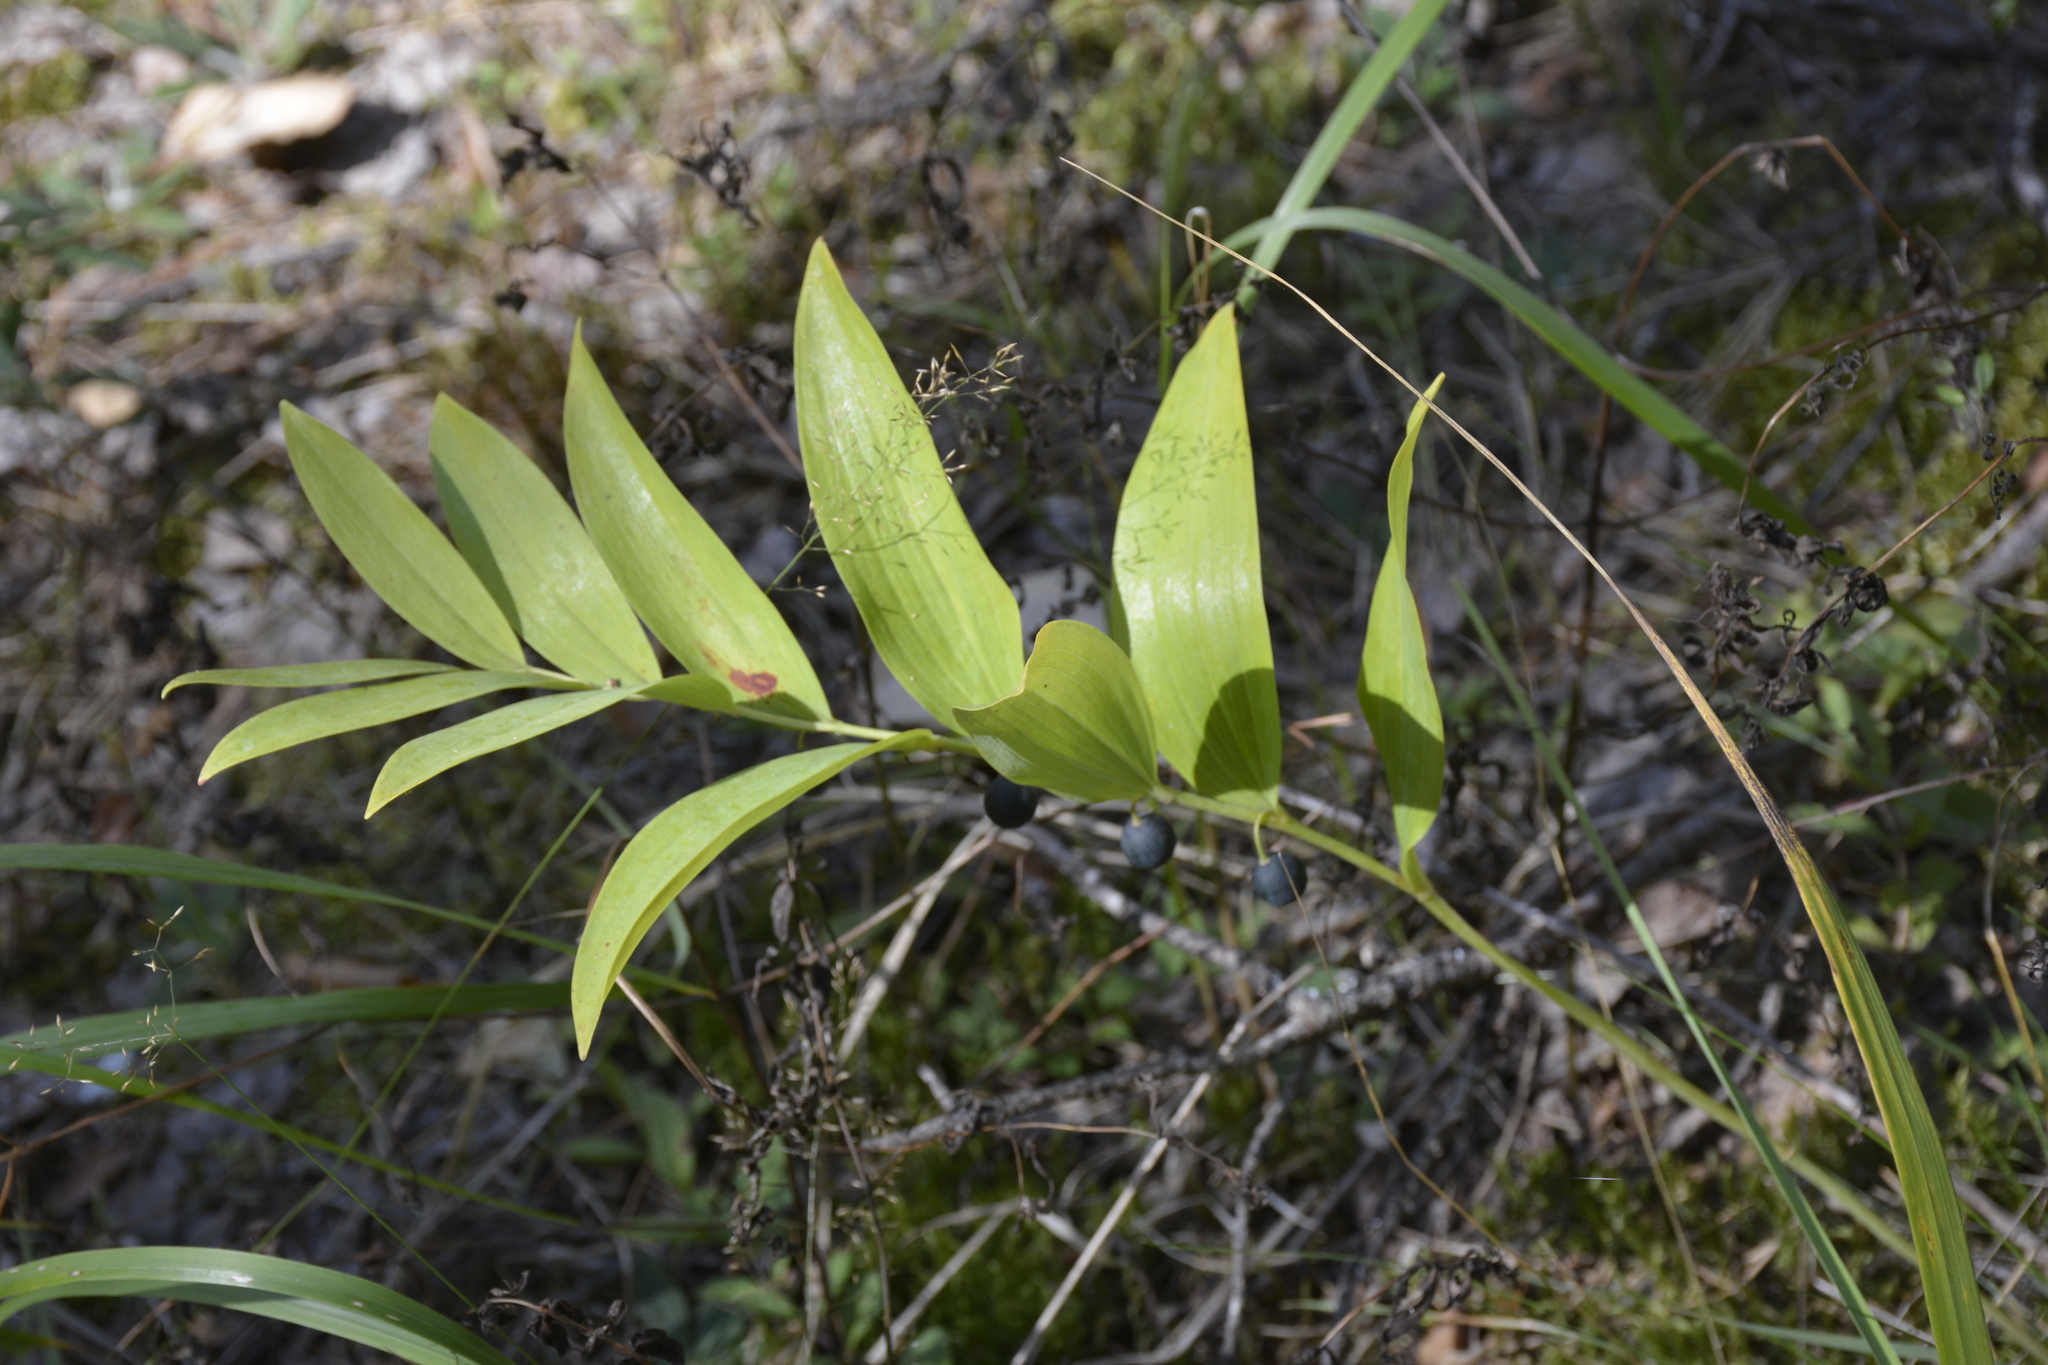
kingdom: Plantae
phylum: Tracheophyta
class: Liliopsida
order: Asparagales
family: Asparagaceae
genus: Polygonatum
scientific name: Polygonatum odoratum
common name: Angular solomon's-seal
